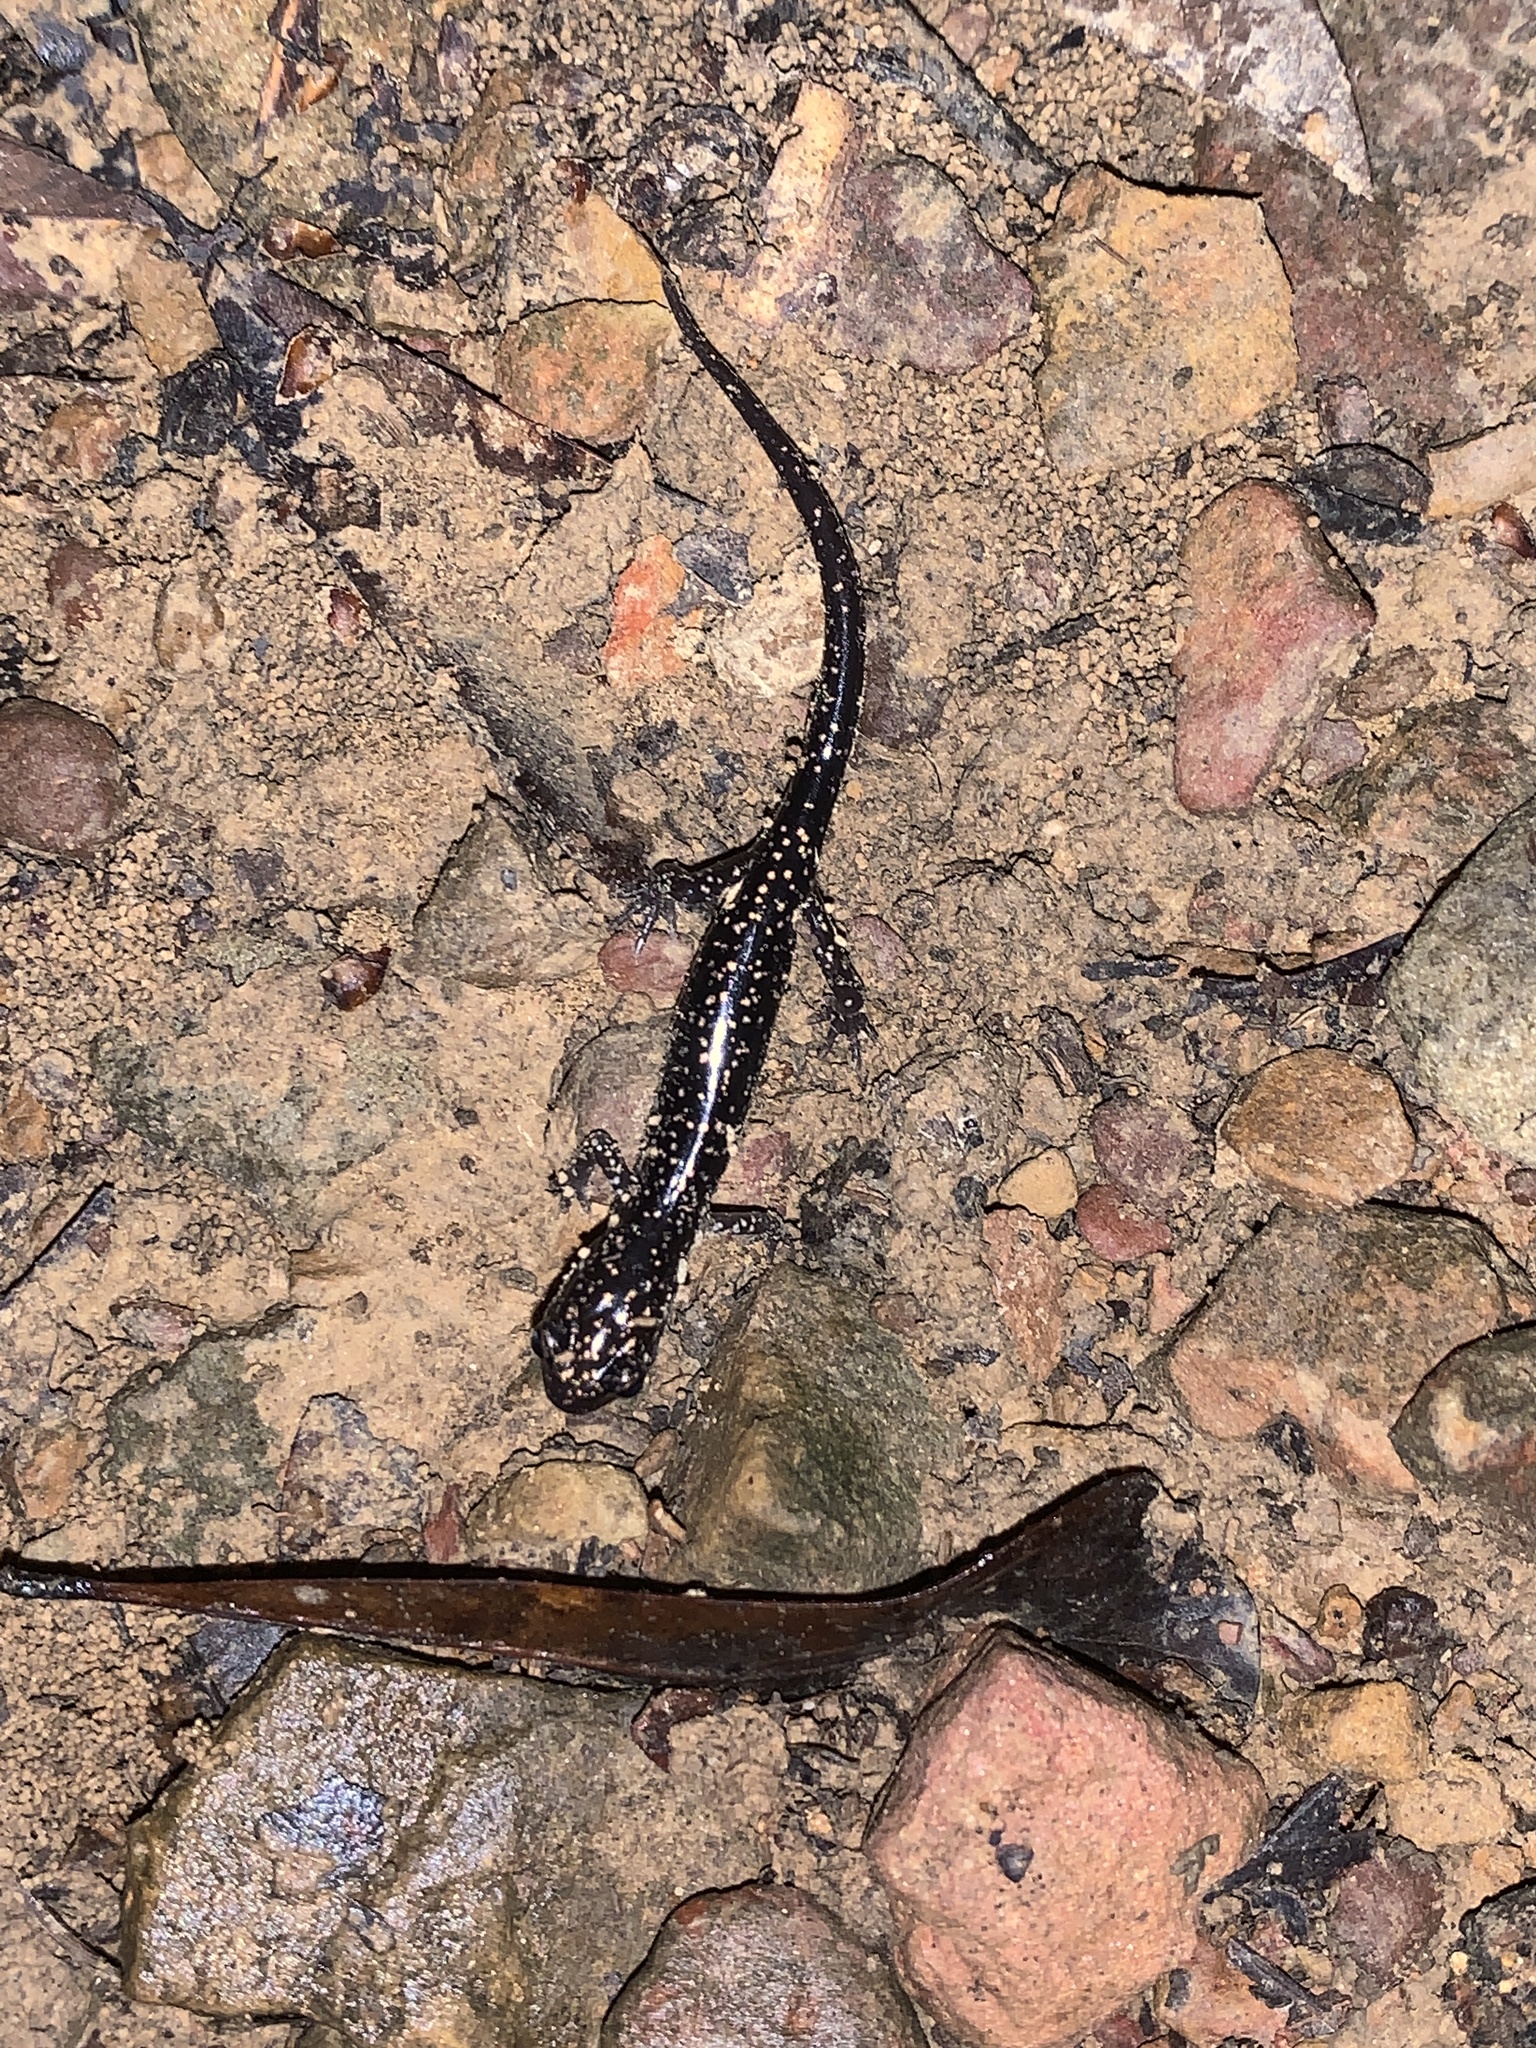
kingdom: Animalia
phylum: Chordata
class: Amphibia
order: Caudata
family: Plethodontidae
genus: Plethodon
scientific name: Plethodon glutinosus
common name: Northern slimy salamander
